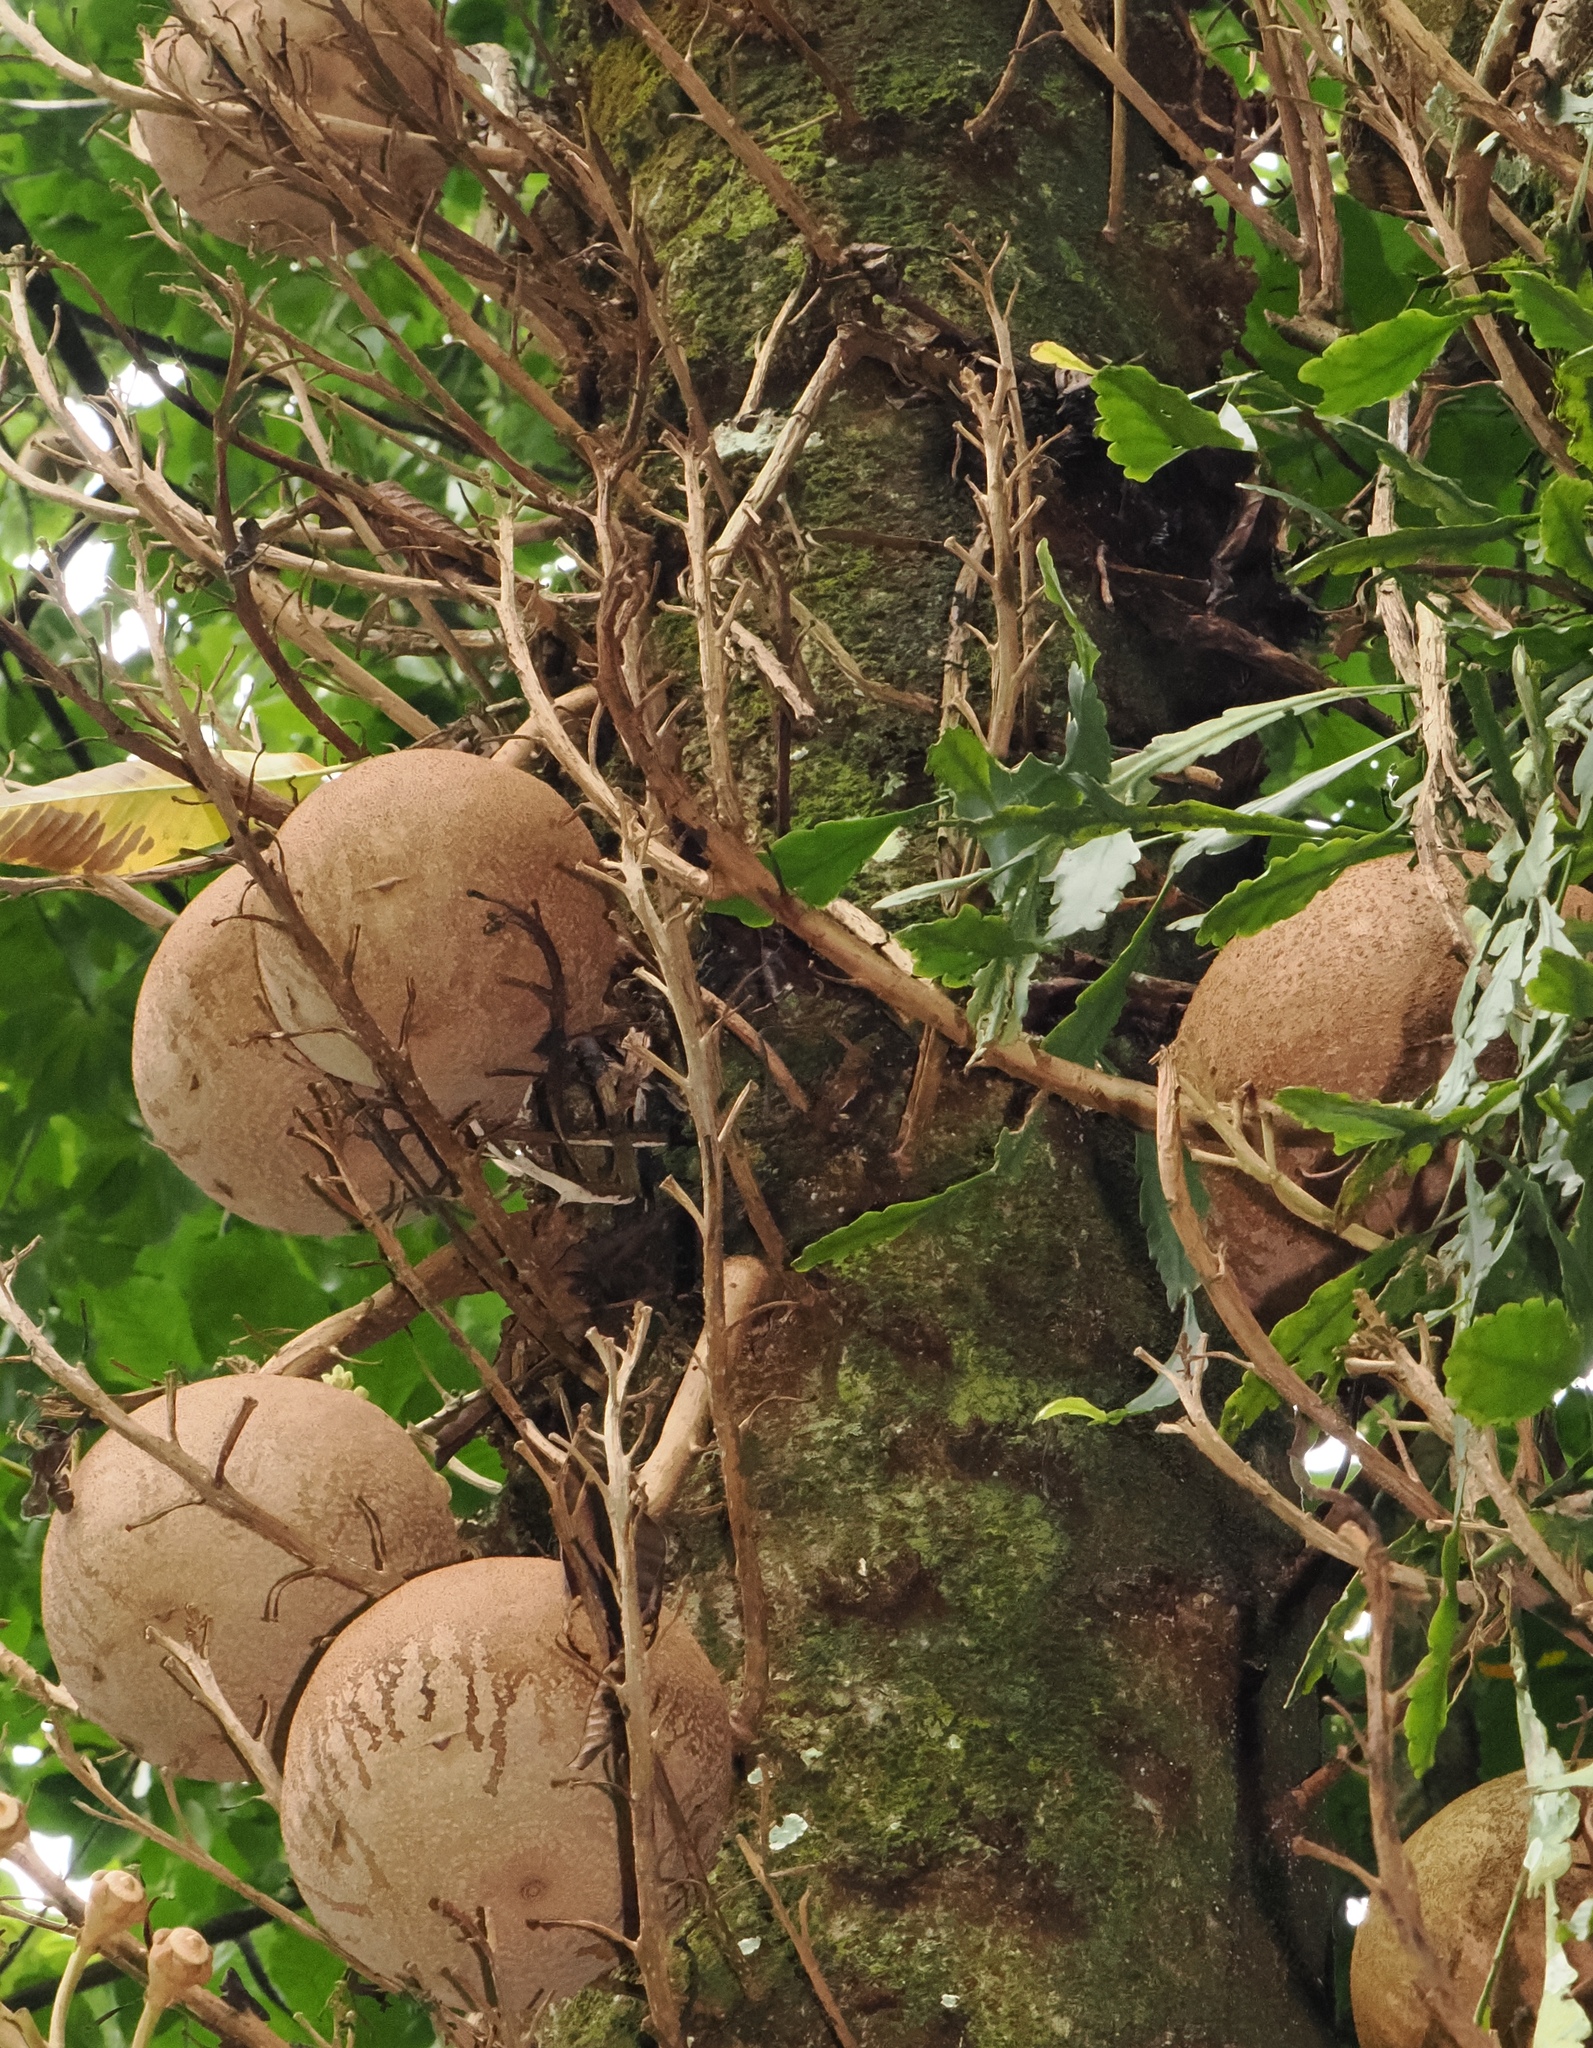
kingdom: Plantae
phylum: Tracheophyta
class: Magnoliopsida
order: Ericales
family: Lecythidaceae
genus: Couroupita
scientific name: Couroupita guianensis
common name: Cannonball tree
